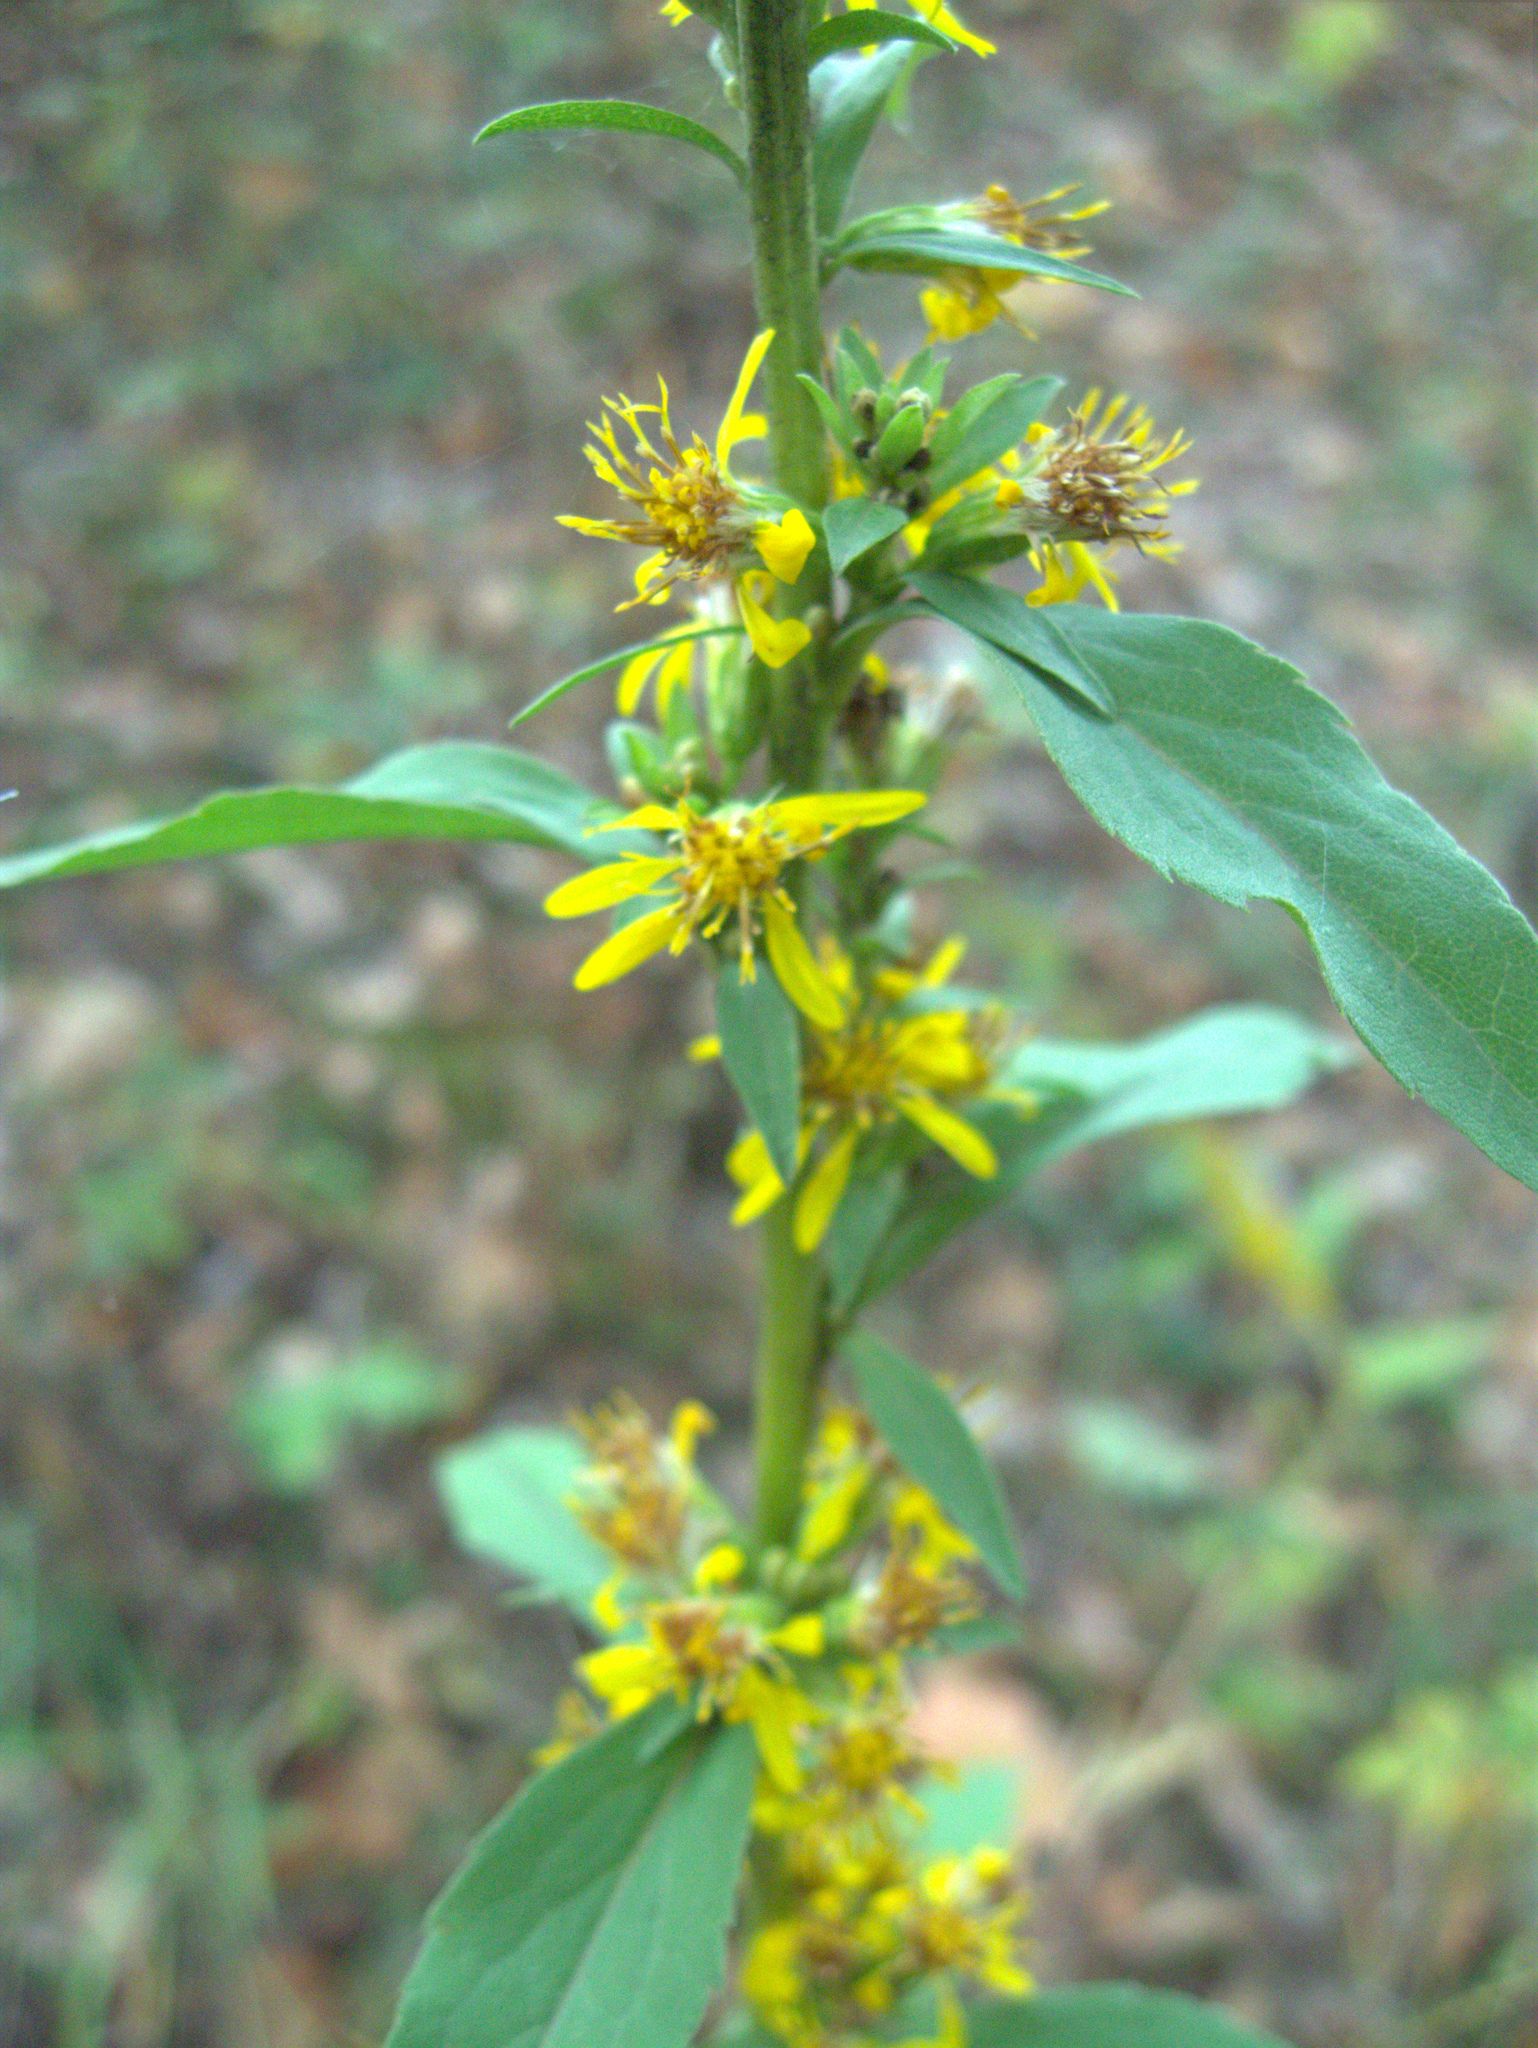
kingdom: Plantae
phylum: Tracheophyta
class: Magnoliopsida
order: Asterales
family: Asteraceae
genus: Solidago
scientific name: Solidago virgaurea
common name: Goldenrod
